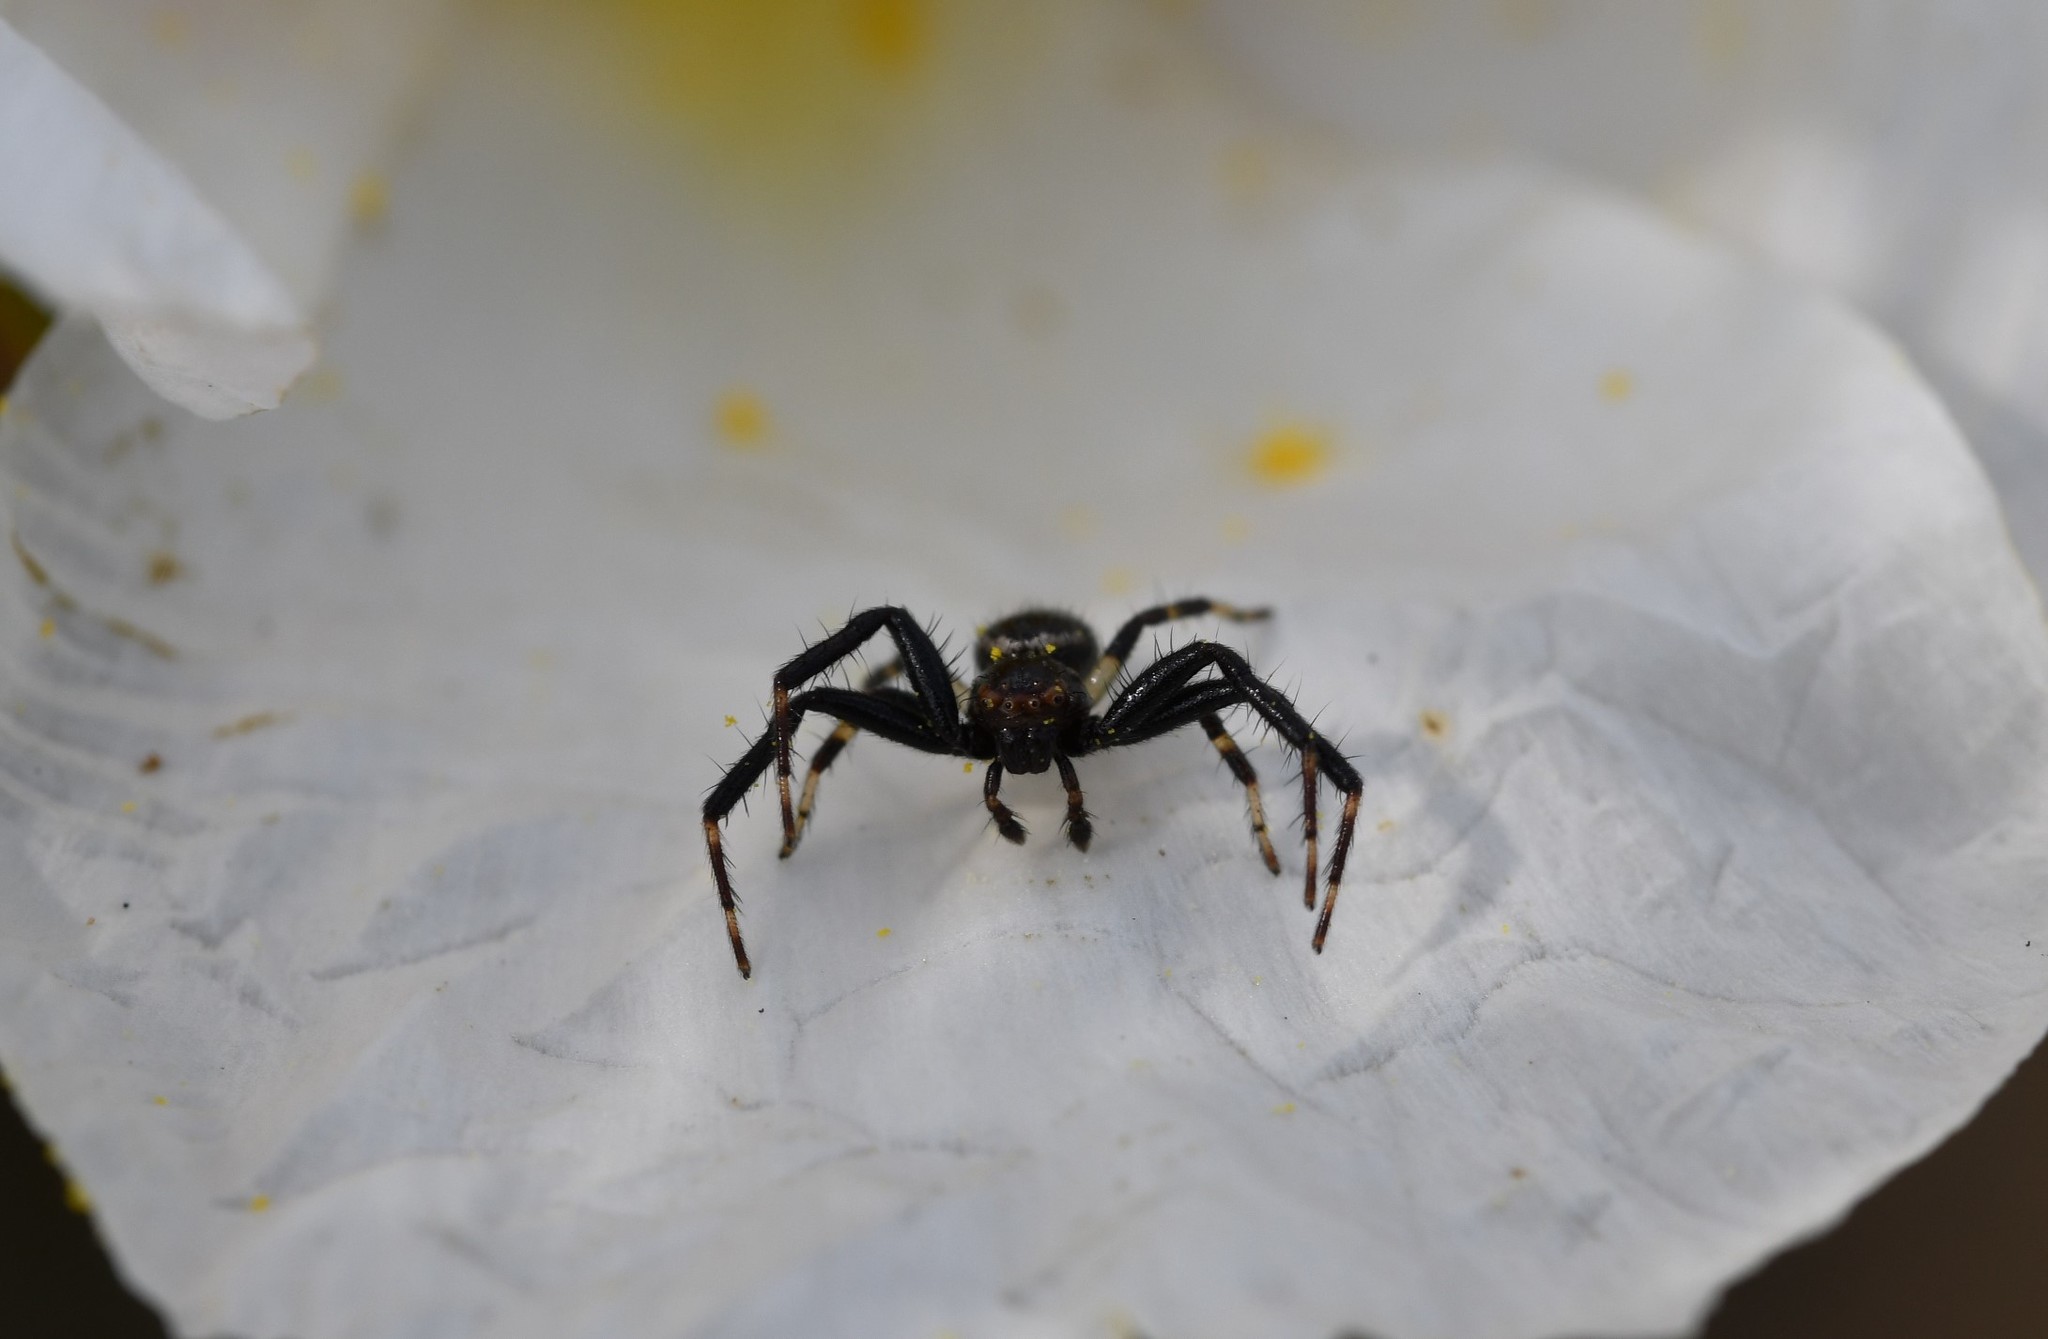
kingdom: Animalia
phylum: Arthropoda
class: Arachnida
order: Araneae
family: Thomisidae
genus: Synema
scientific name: Synema globosum
